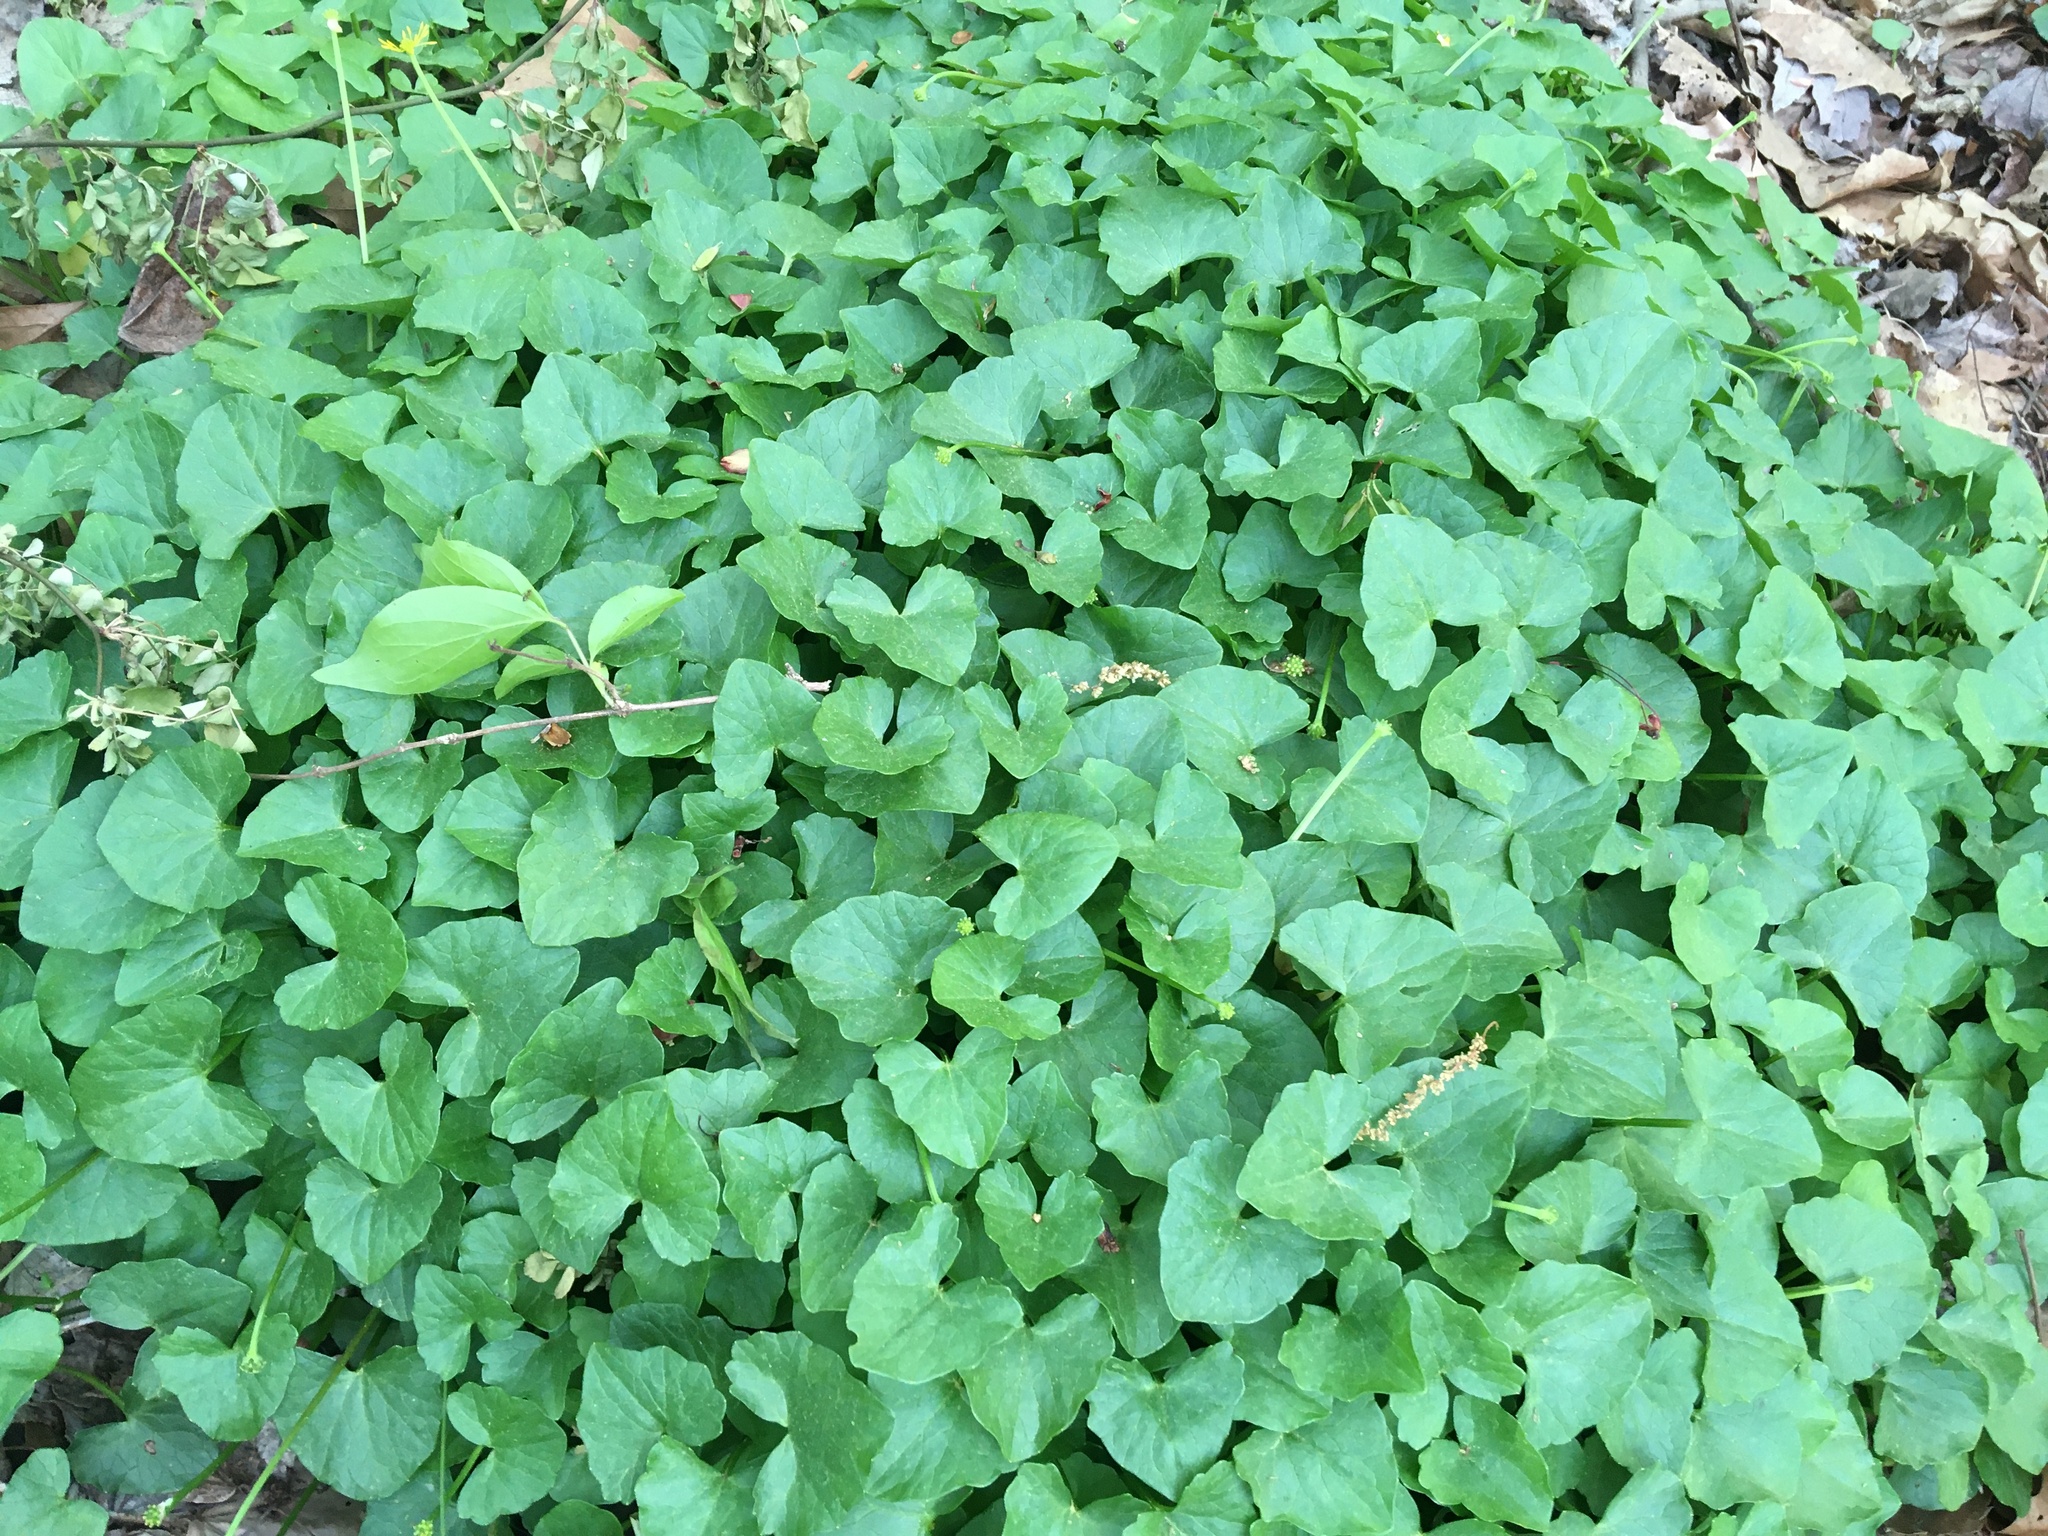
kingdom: Plantae
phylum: Tracheophyta
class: Magnoliopsida
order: Ranunculales
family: Ranunculaceae
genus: Ficaria
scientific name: Ficaria verna
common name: Lesser celandine
